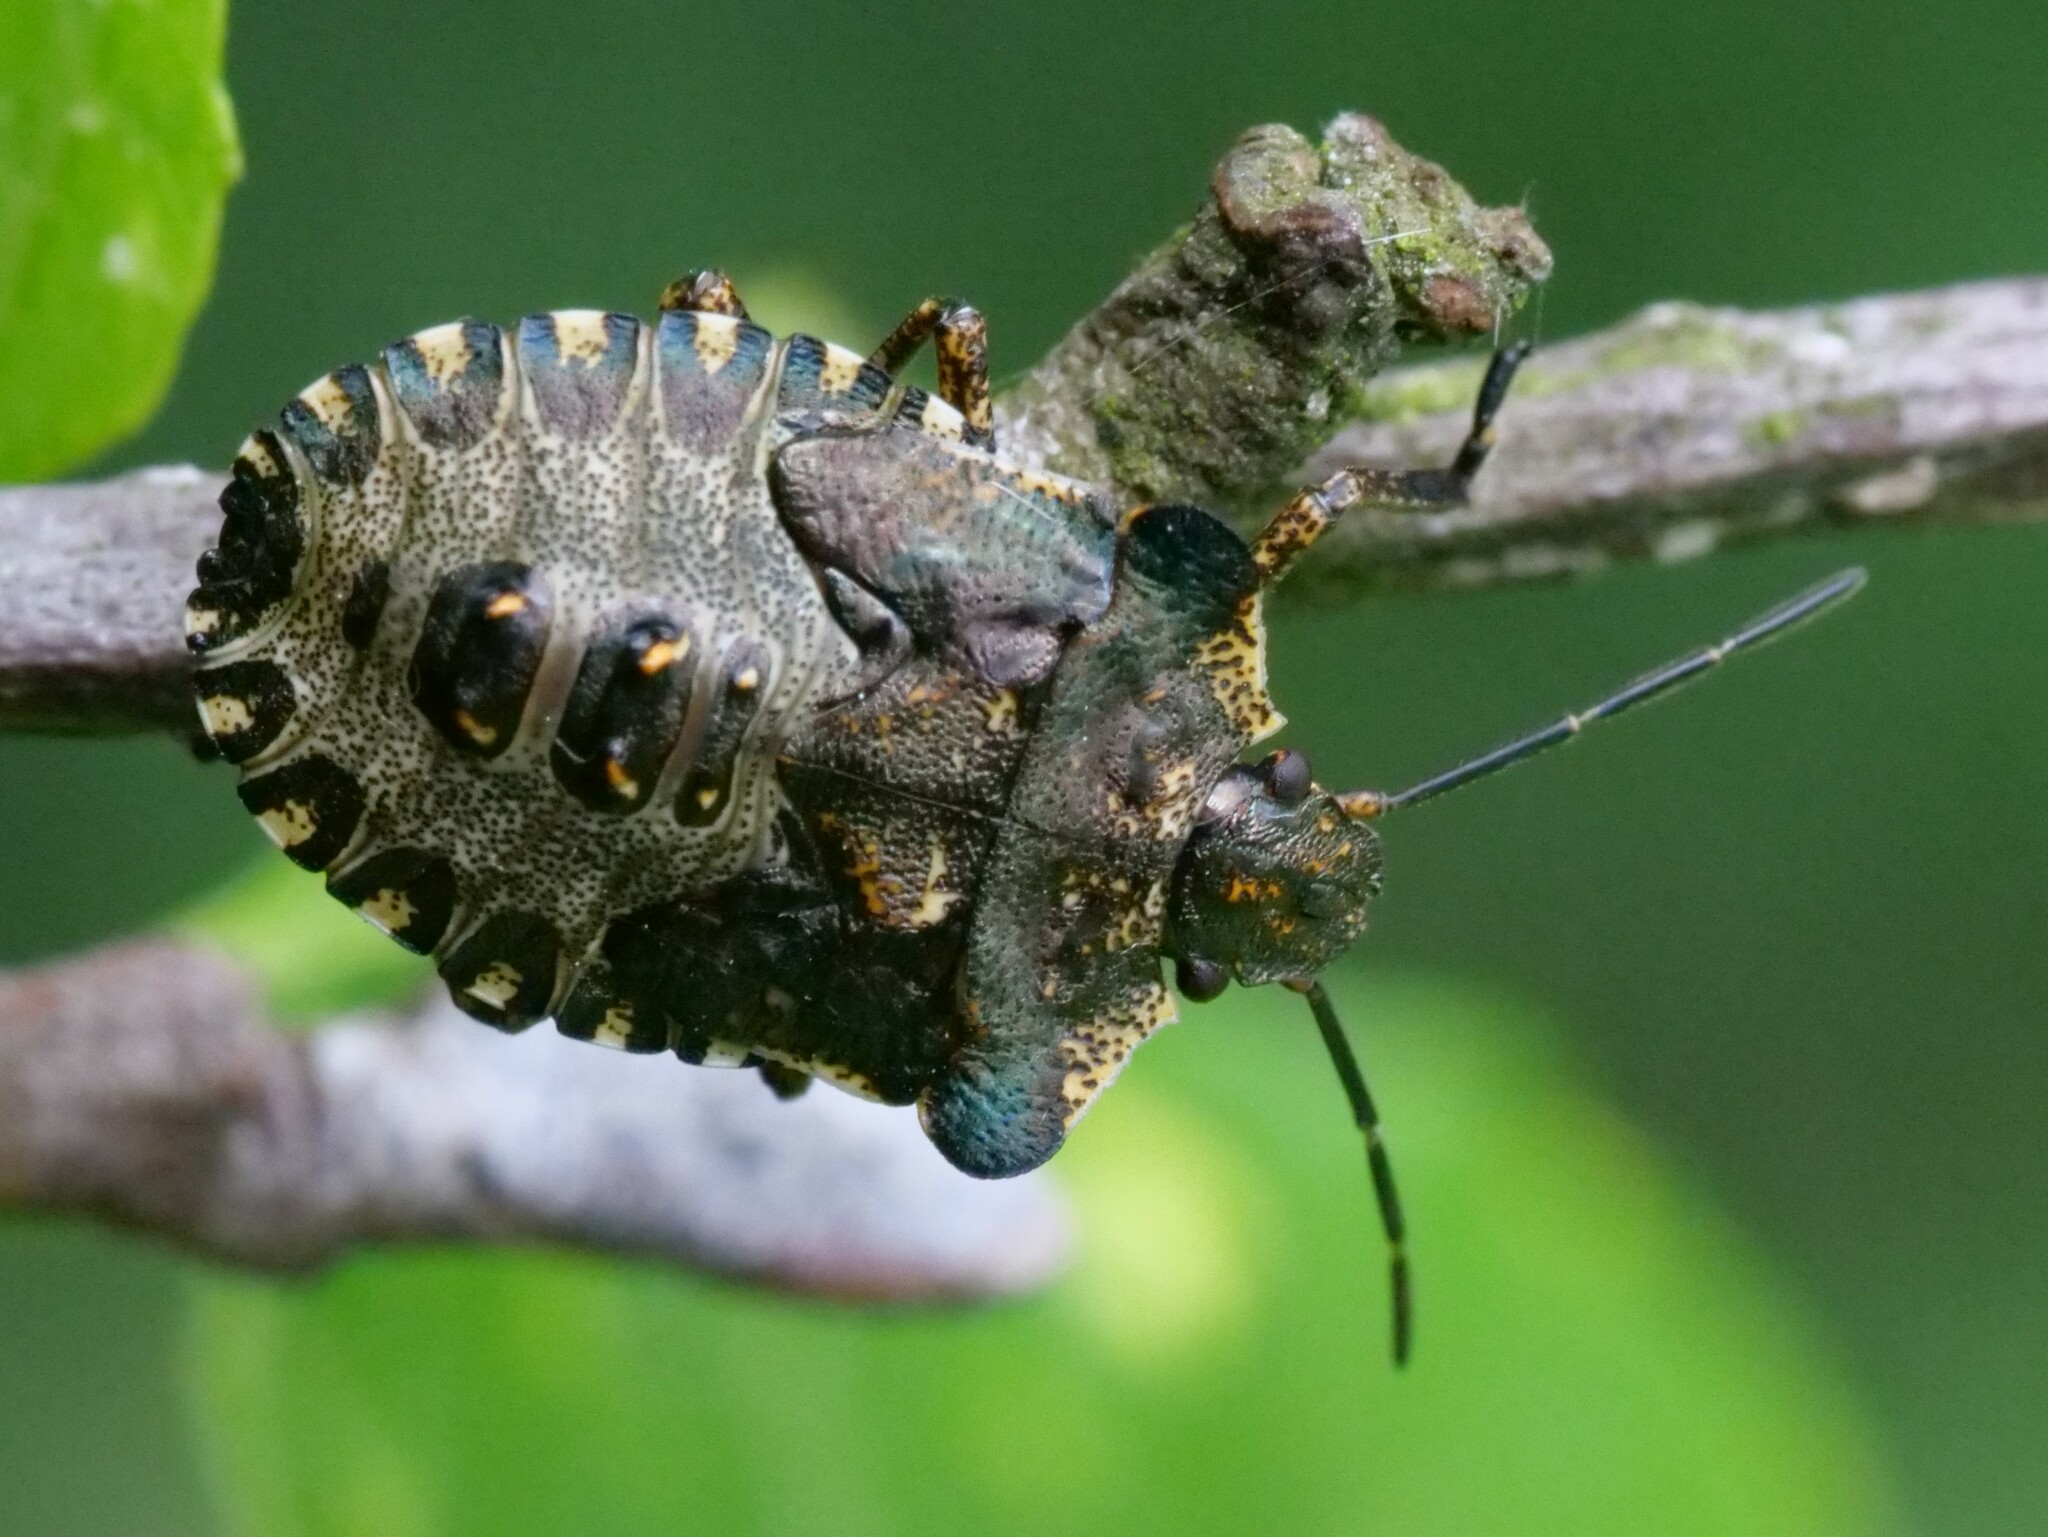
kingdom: Animalia
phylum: Arthropoda
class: Insecta
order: Hemiptera
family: Pentatomidae
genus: Pentatoma
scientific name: Pentatoma rufipes
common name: Forest bug
